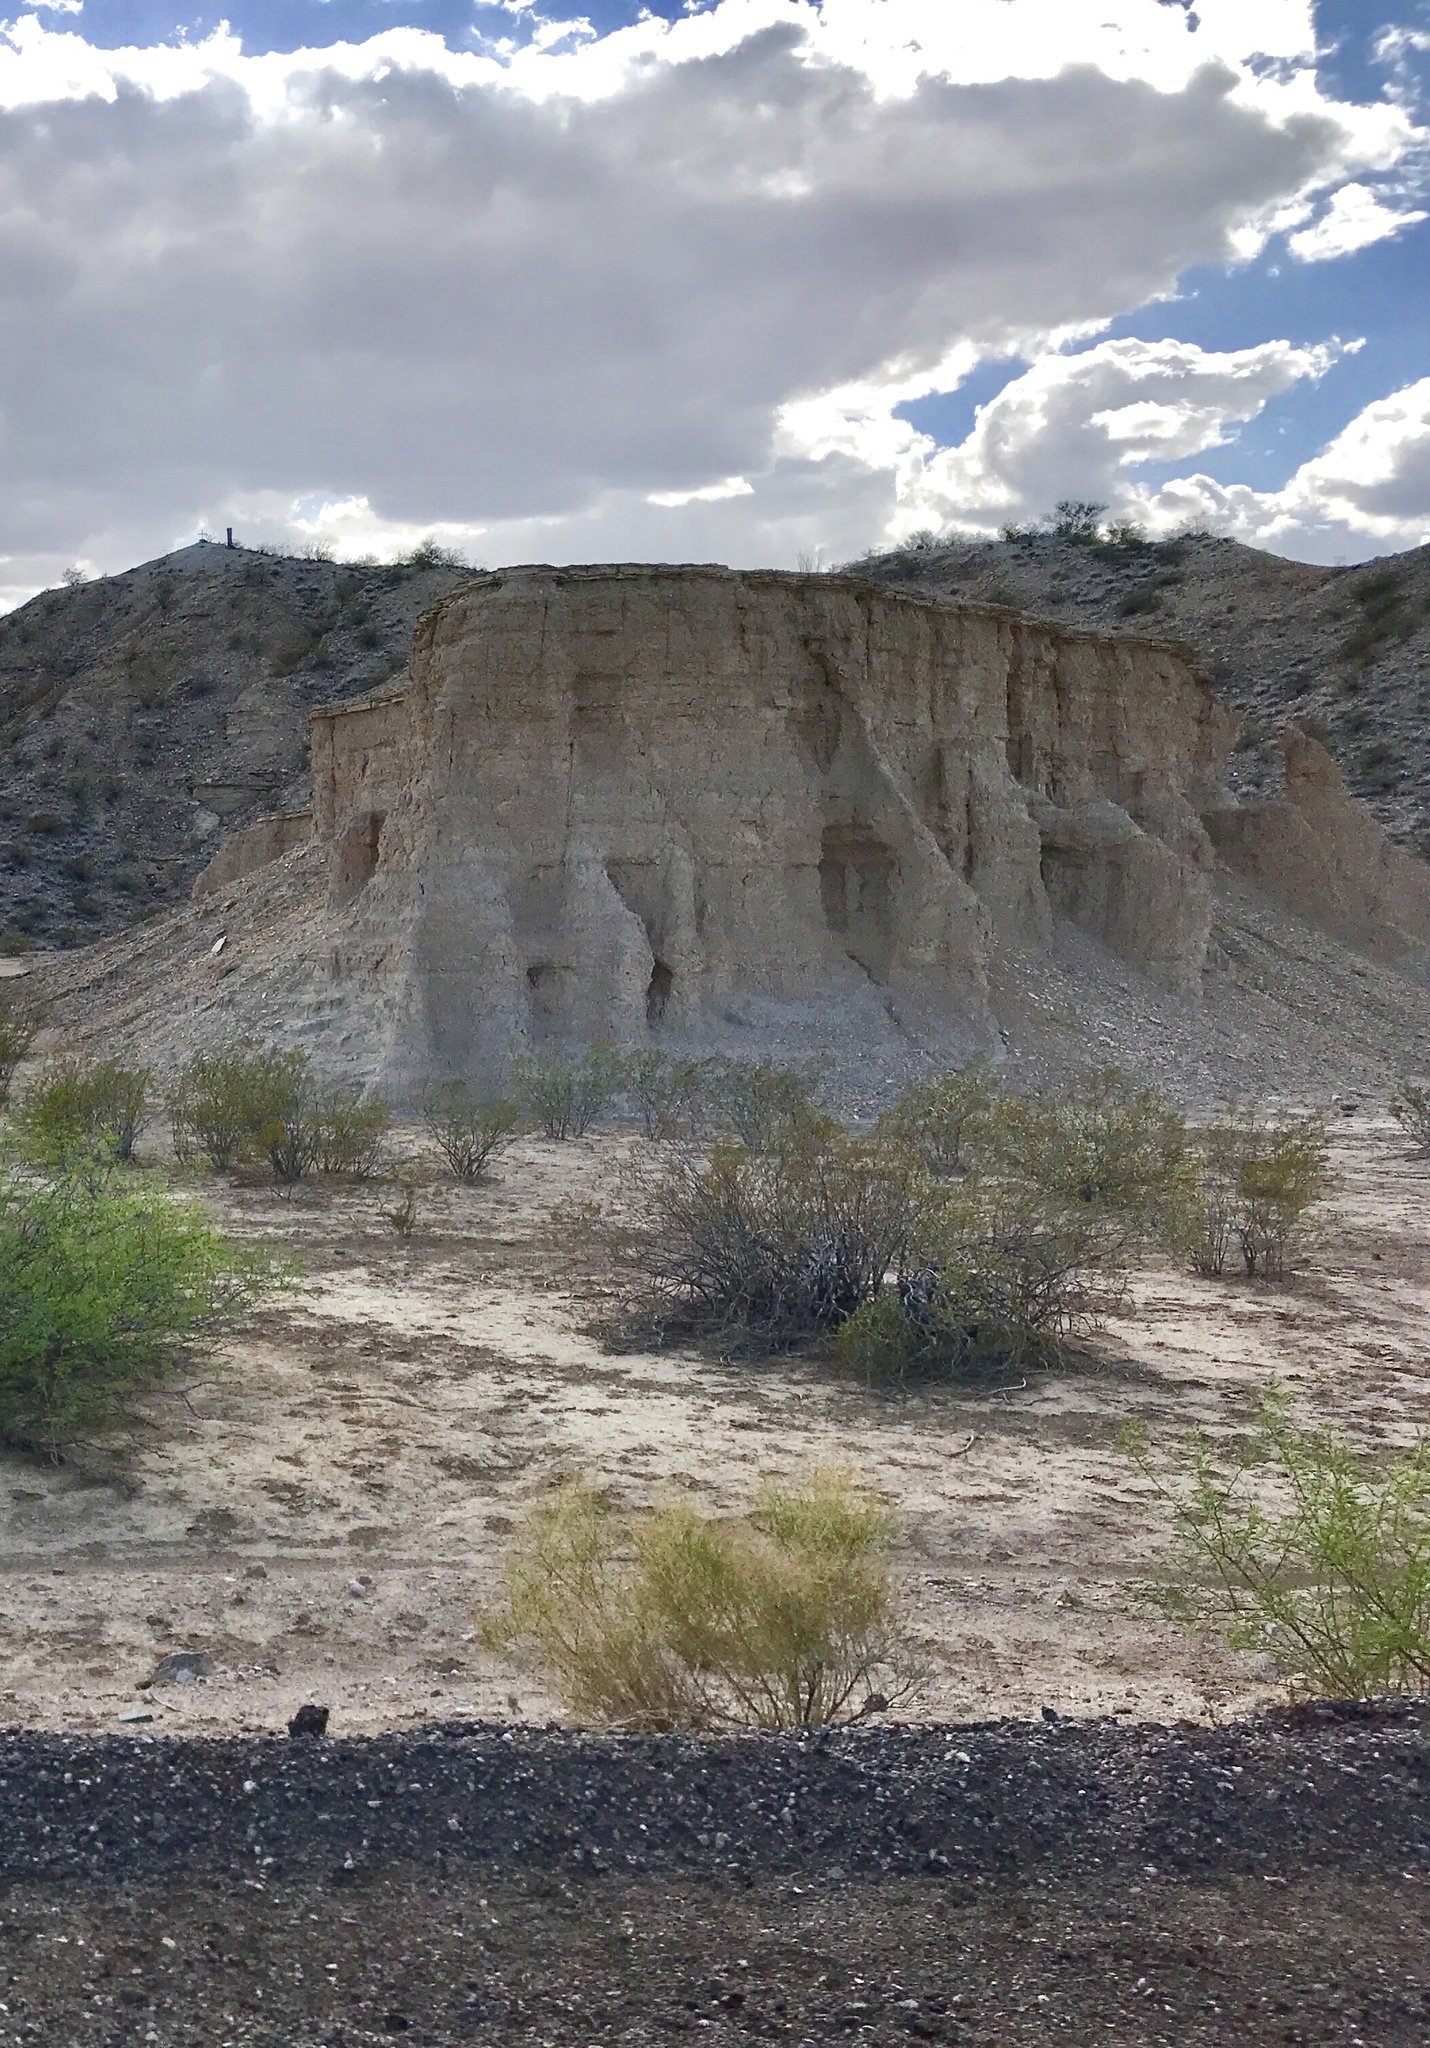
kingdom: Plantae
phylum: Tracheophyta
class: Magnoliopsida
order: Zygophyllales
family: Zygophyllaceae
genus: Larrea
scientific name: Larrea tridentata
